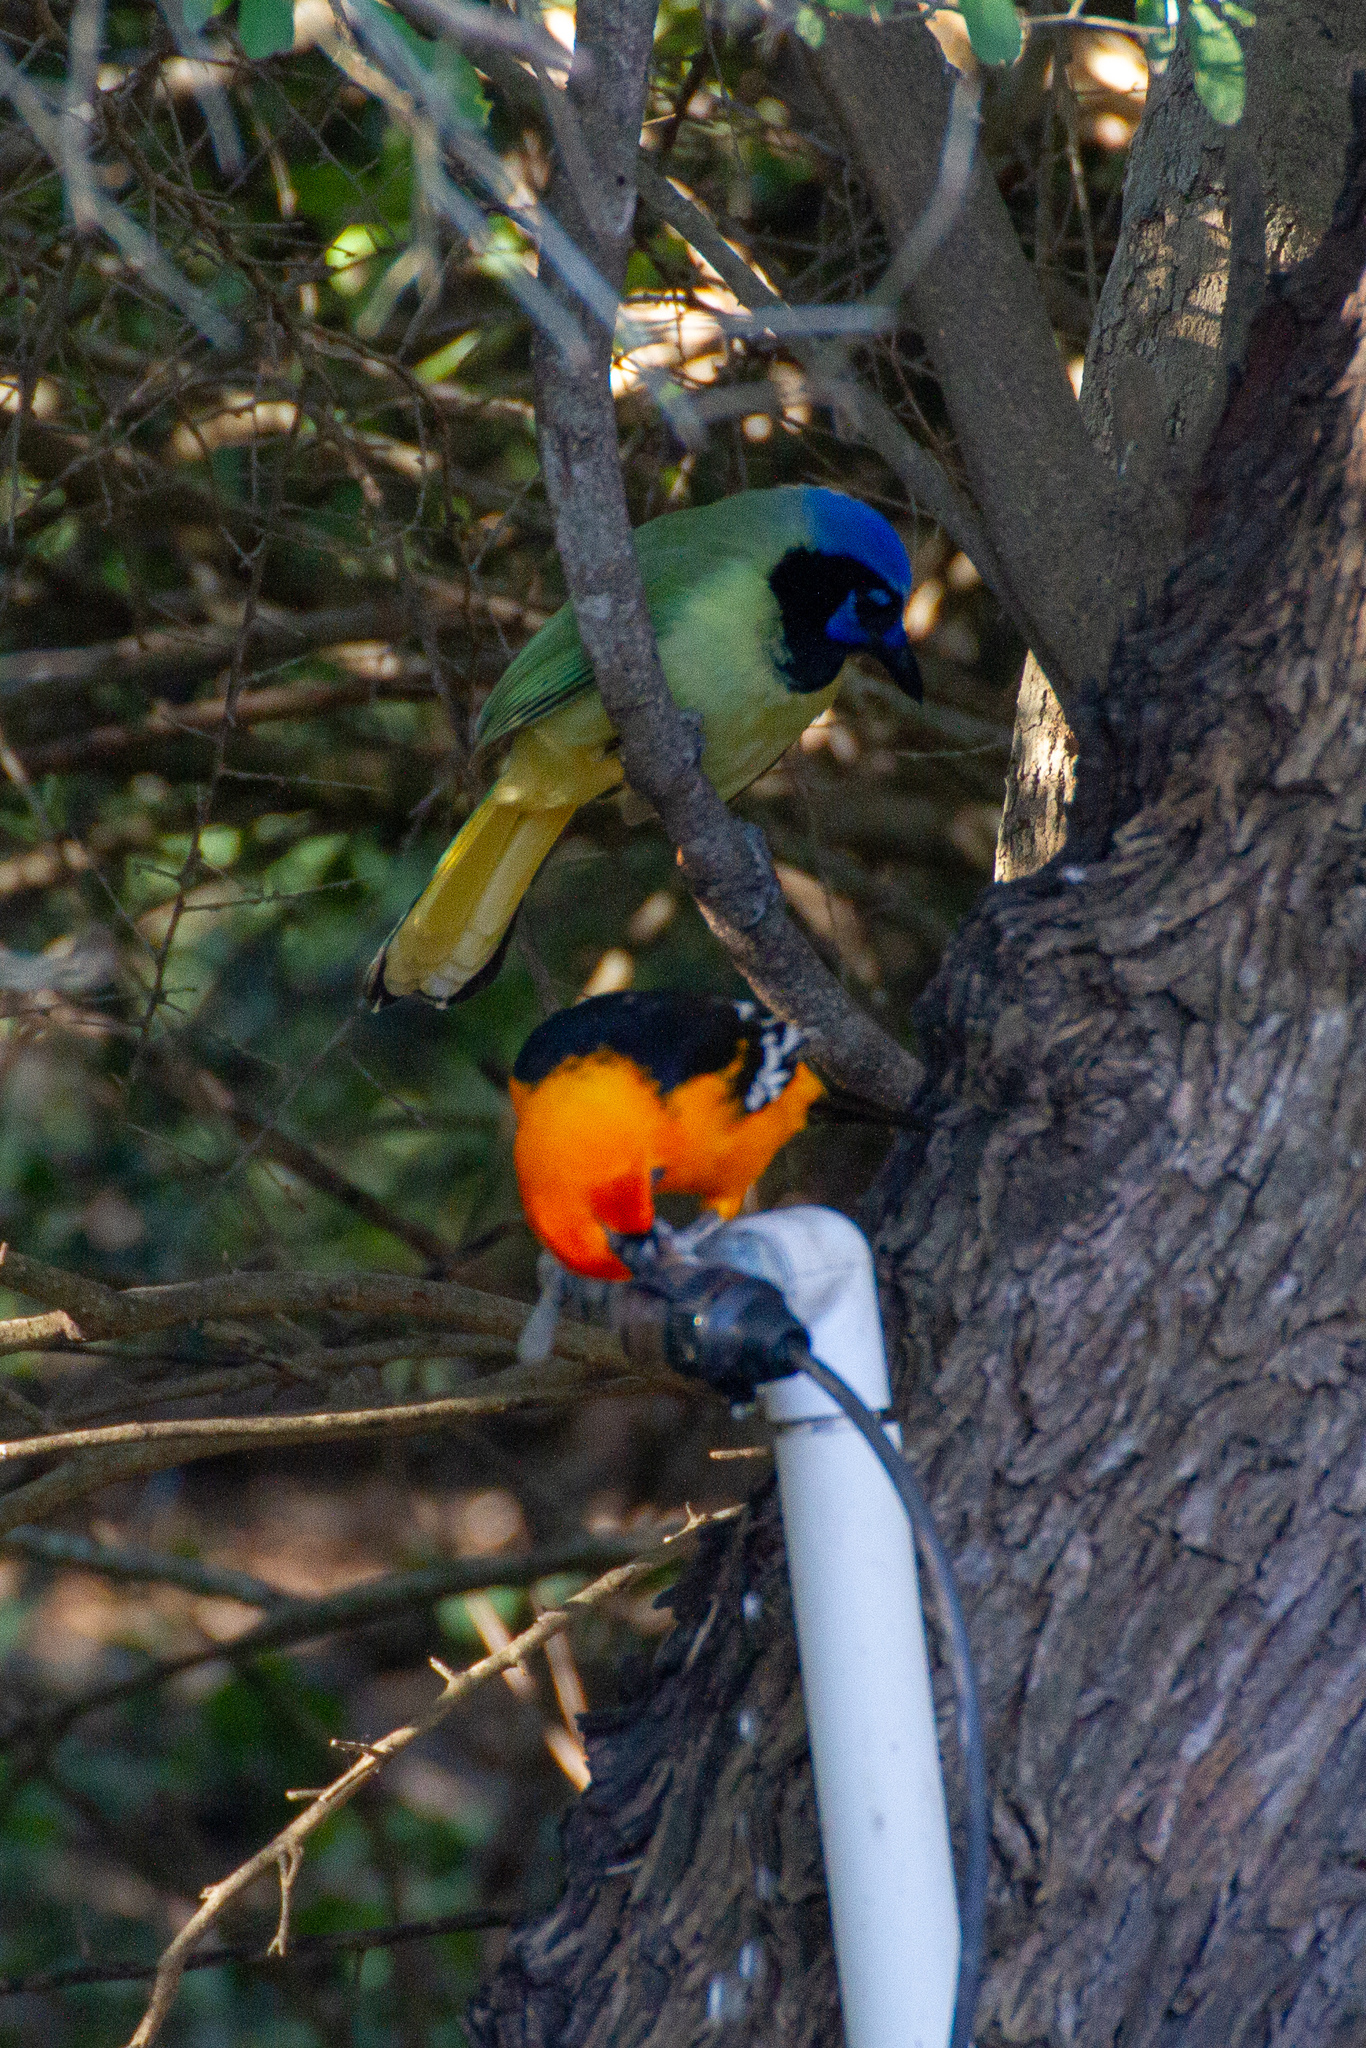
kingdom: Animalia
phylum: Chordata
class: Aves
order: Passeriformes
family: Corvidae
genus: Cyanocorax
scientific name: Cyanocorax yncas
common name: Green jay
